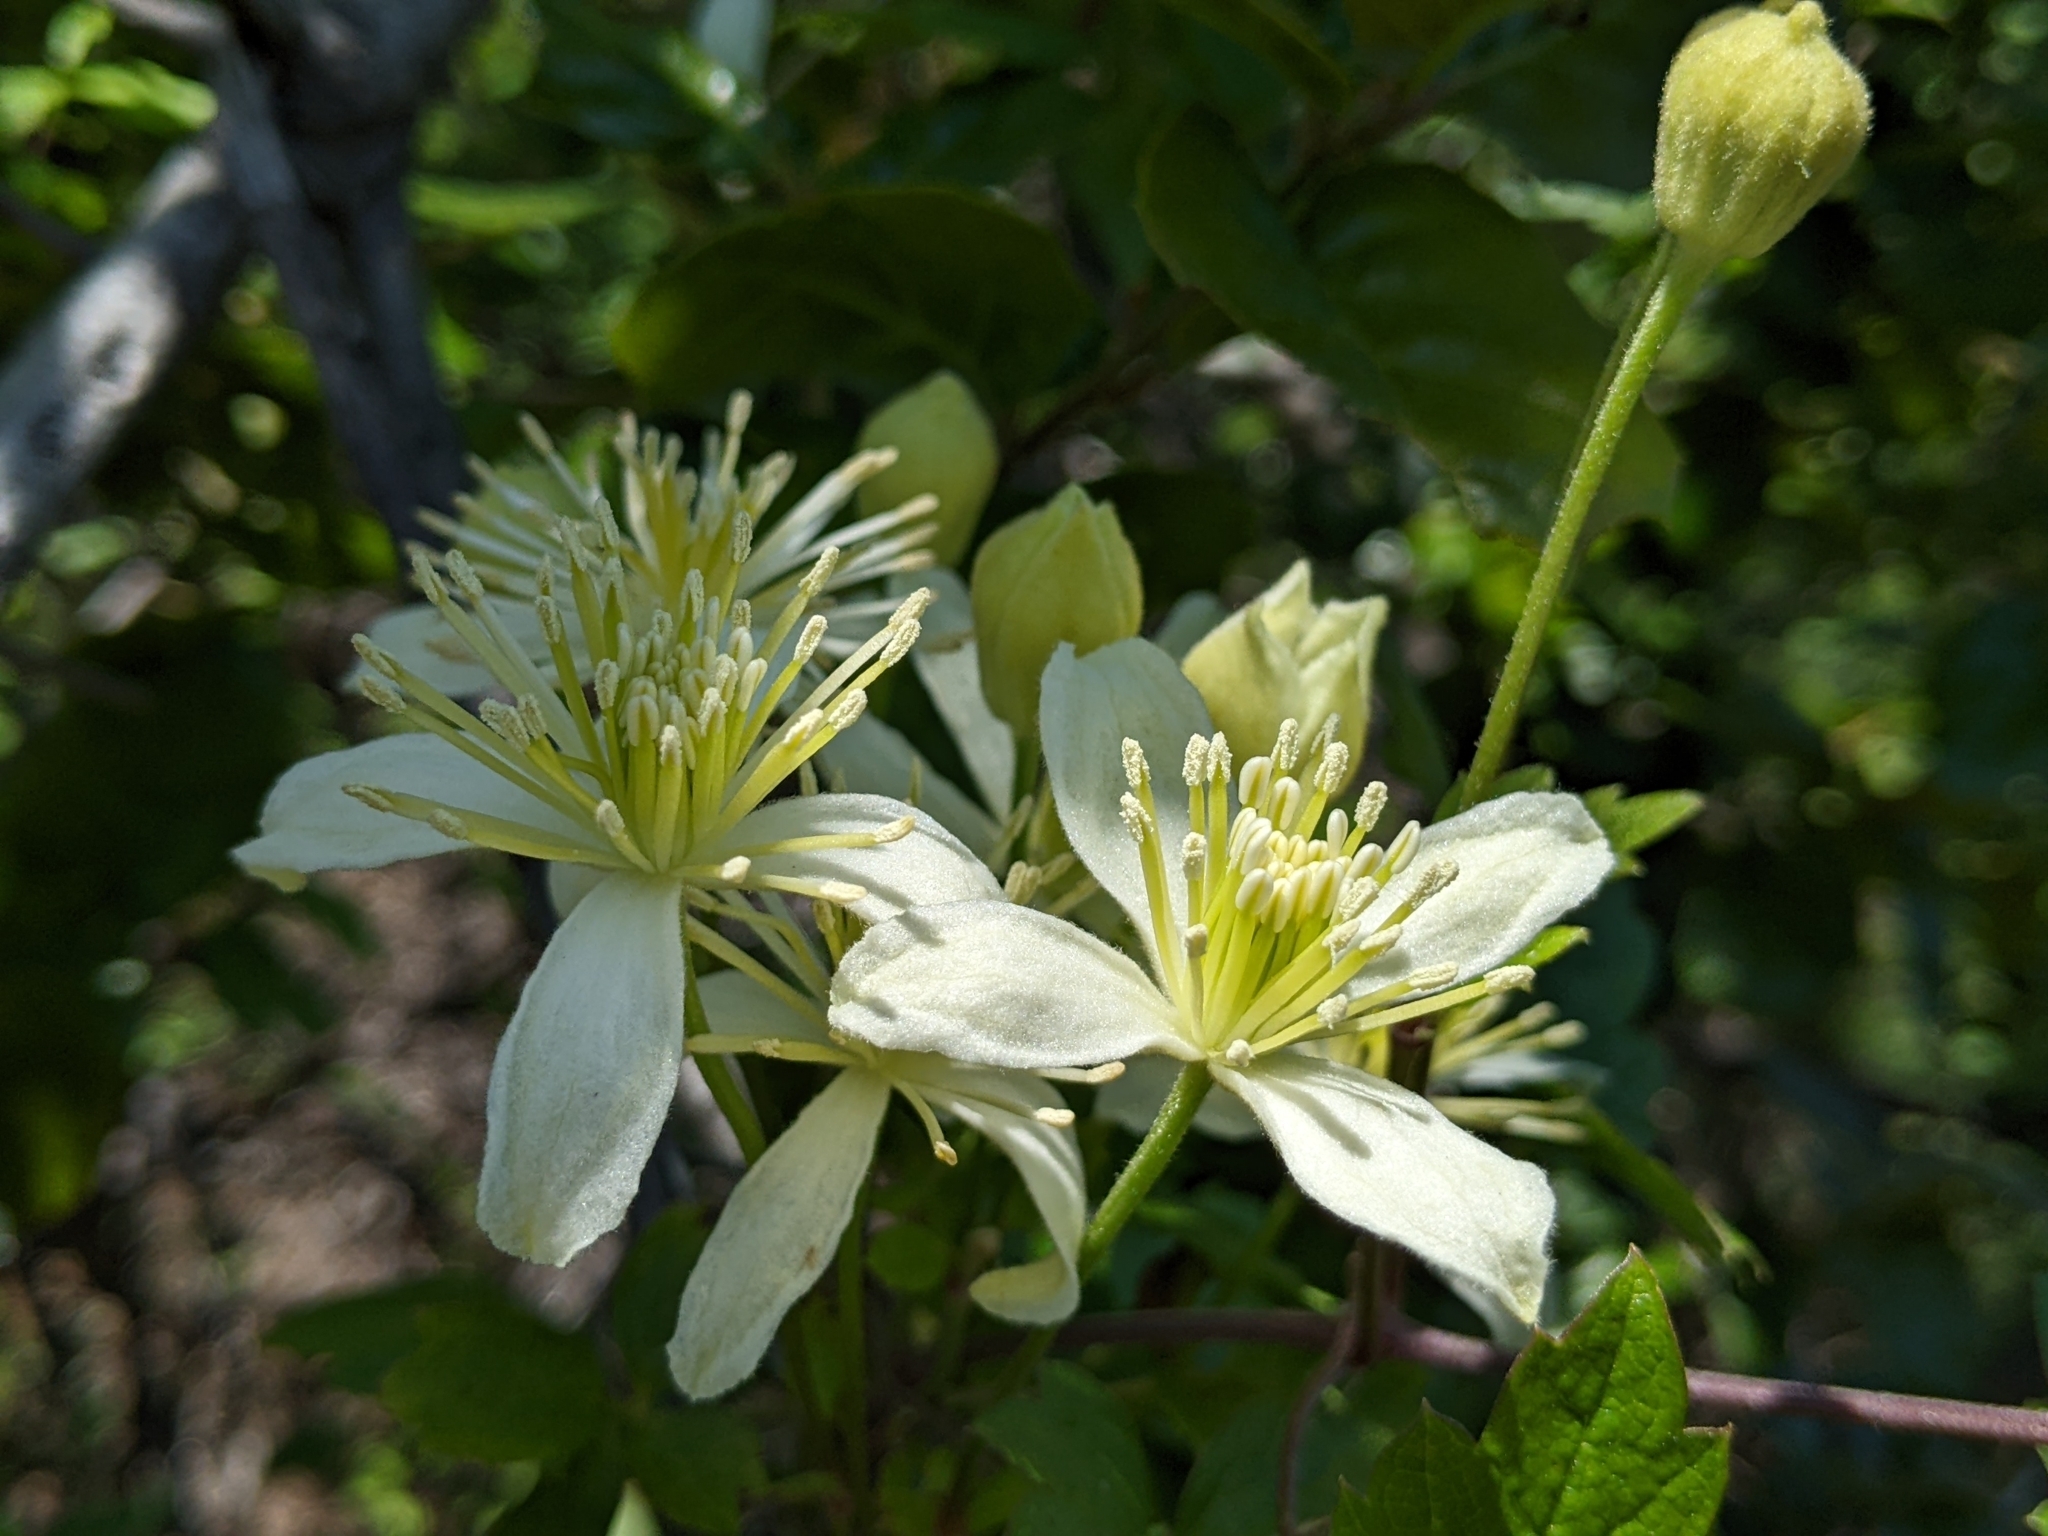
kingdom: Plantae
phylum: Tracheophyta
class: Magnoliopsida
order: Ranunculales
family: Ranunculaceae
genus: Clematis
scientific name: Clematis lasiantha
